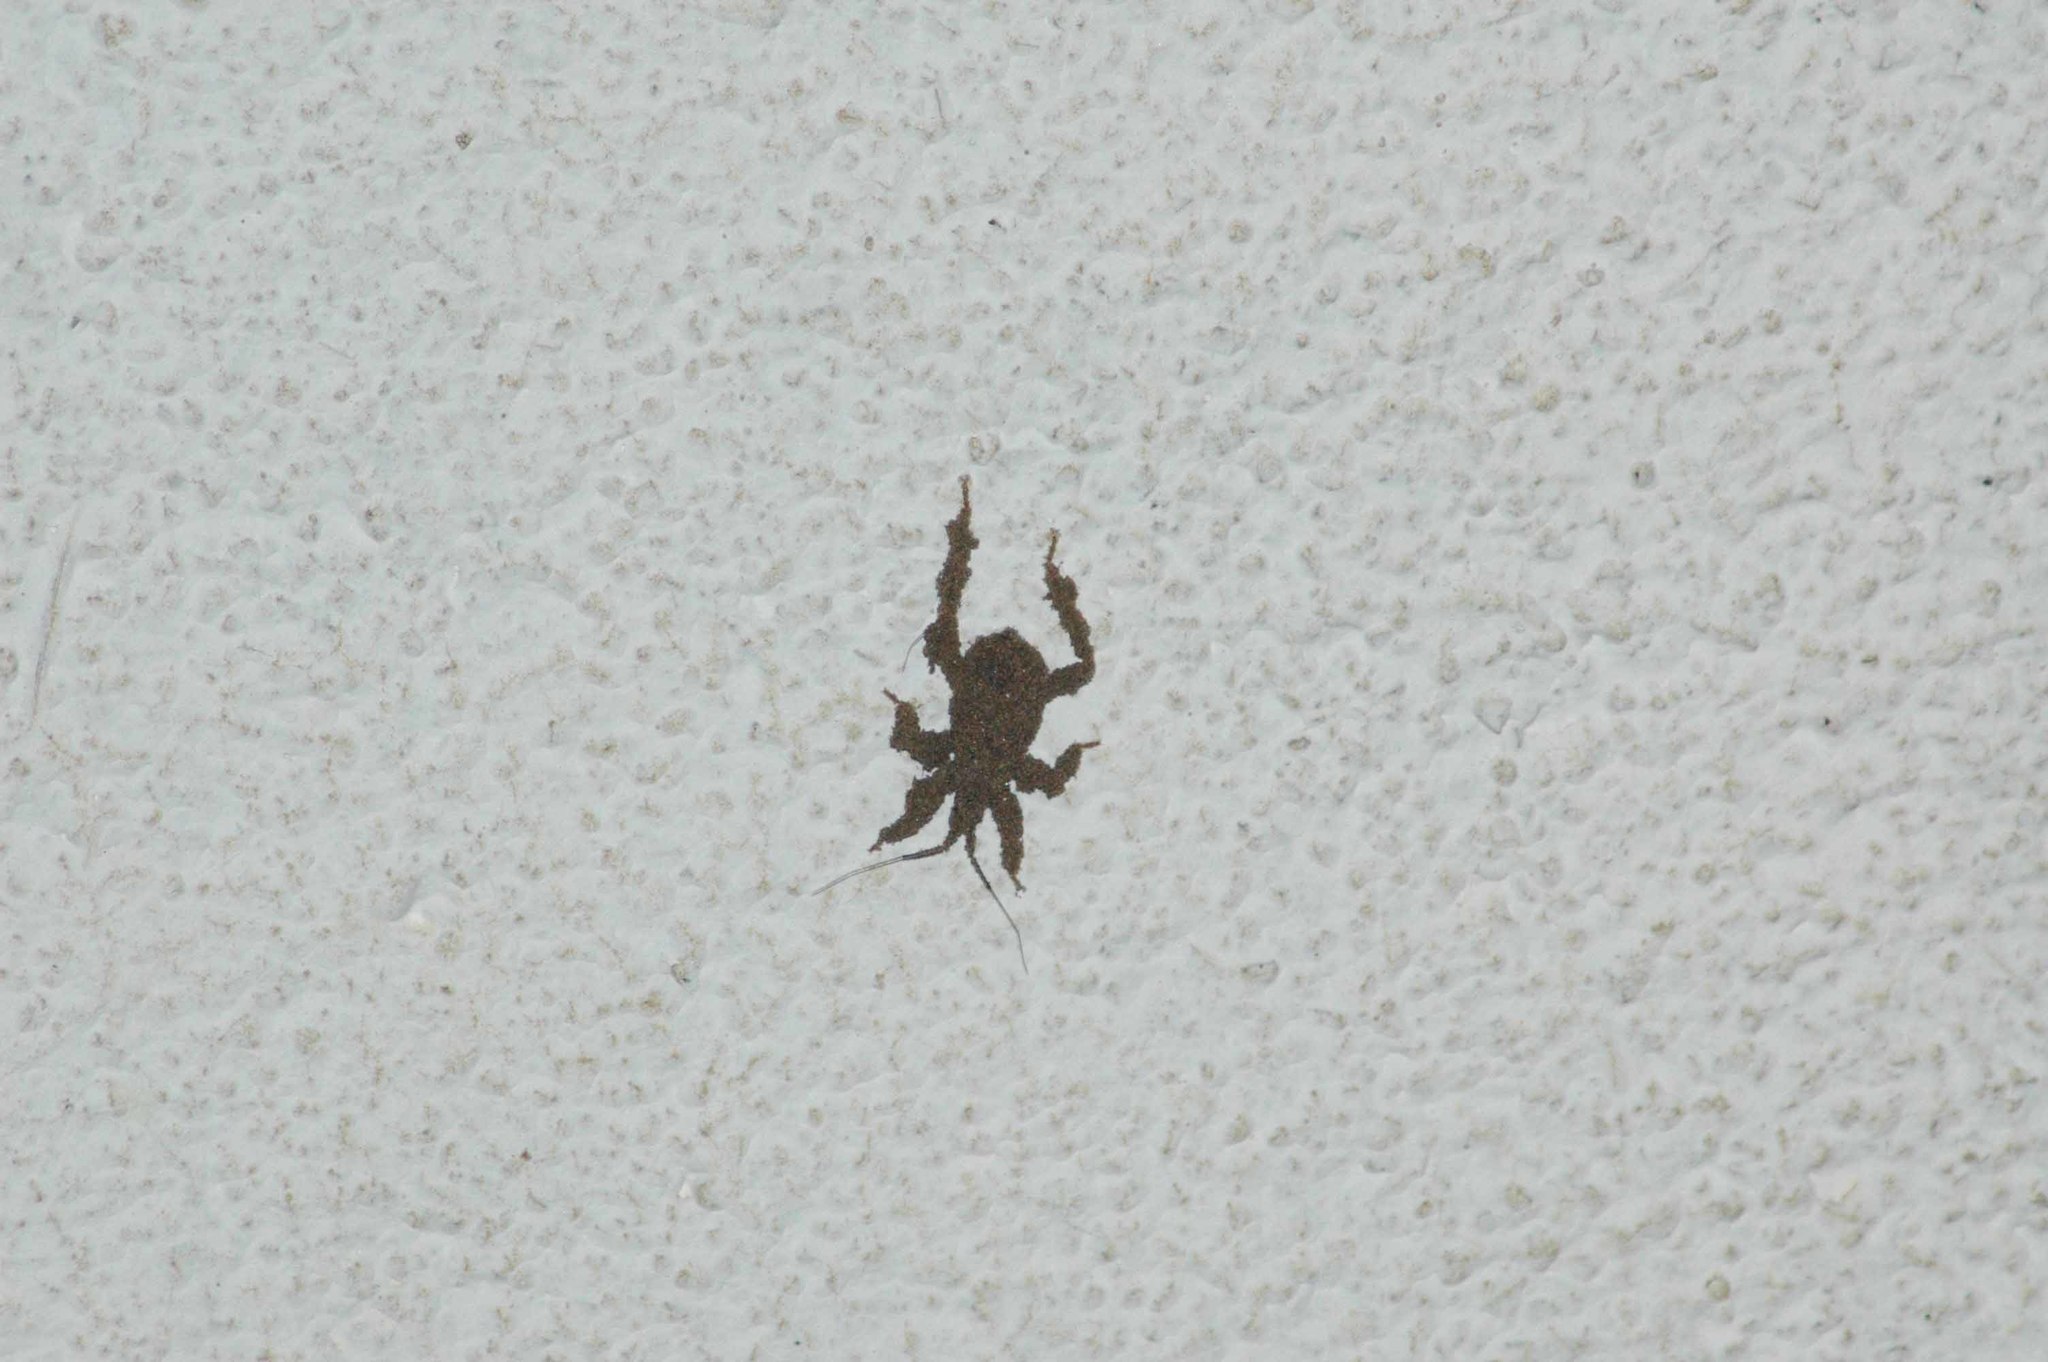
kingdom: Animalia
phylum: Arthropoda
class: Insecta
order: Hemiptera
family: Reduviidae
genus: Reduvius
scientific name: Reduvius personatus
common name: Masked hunter
